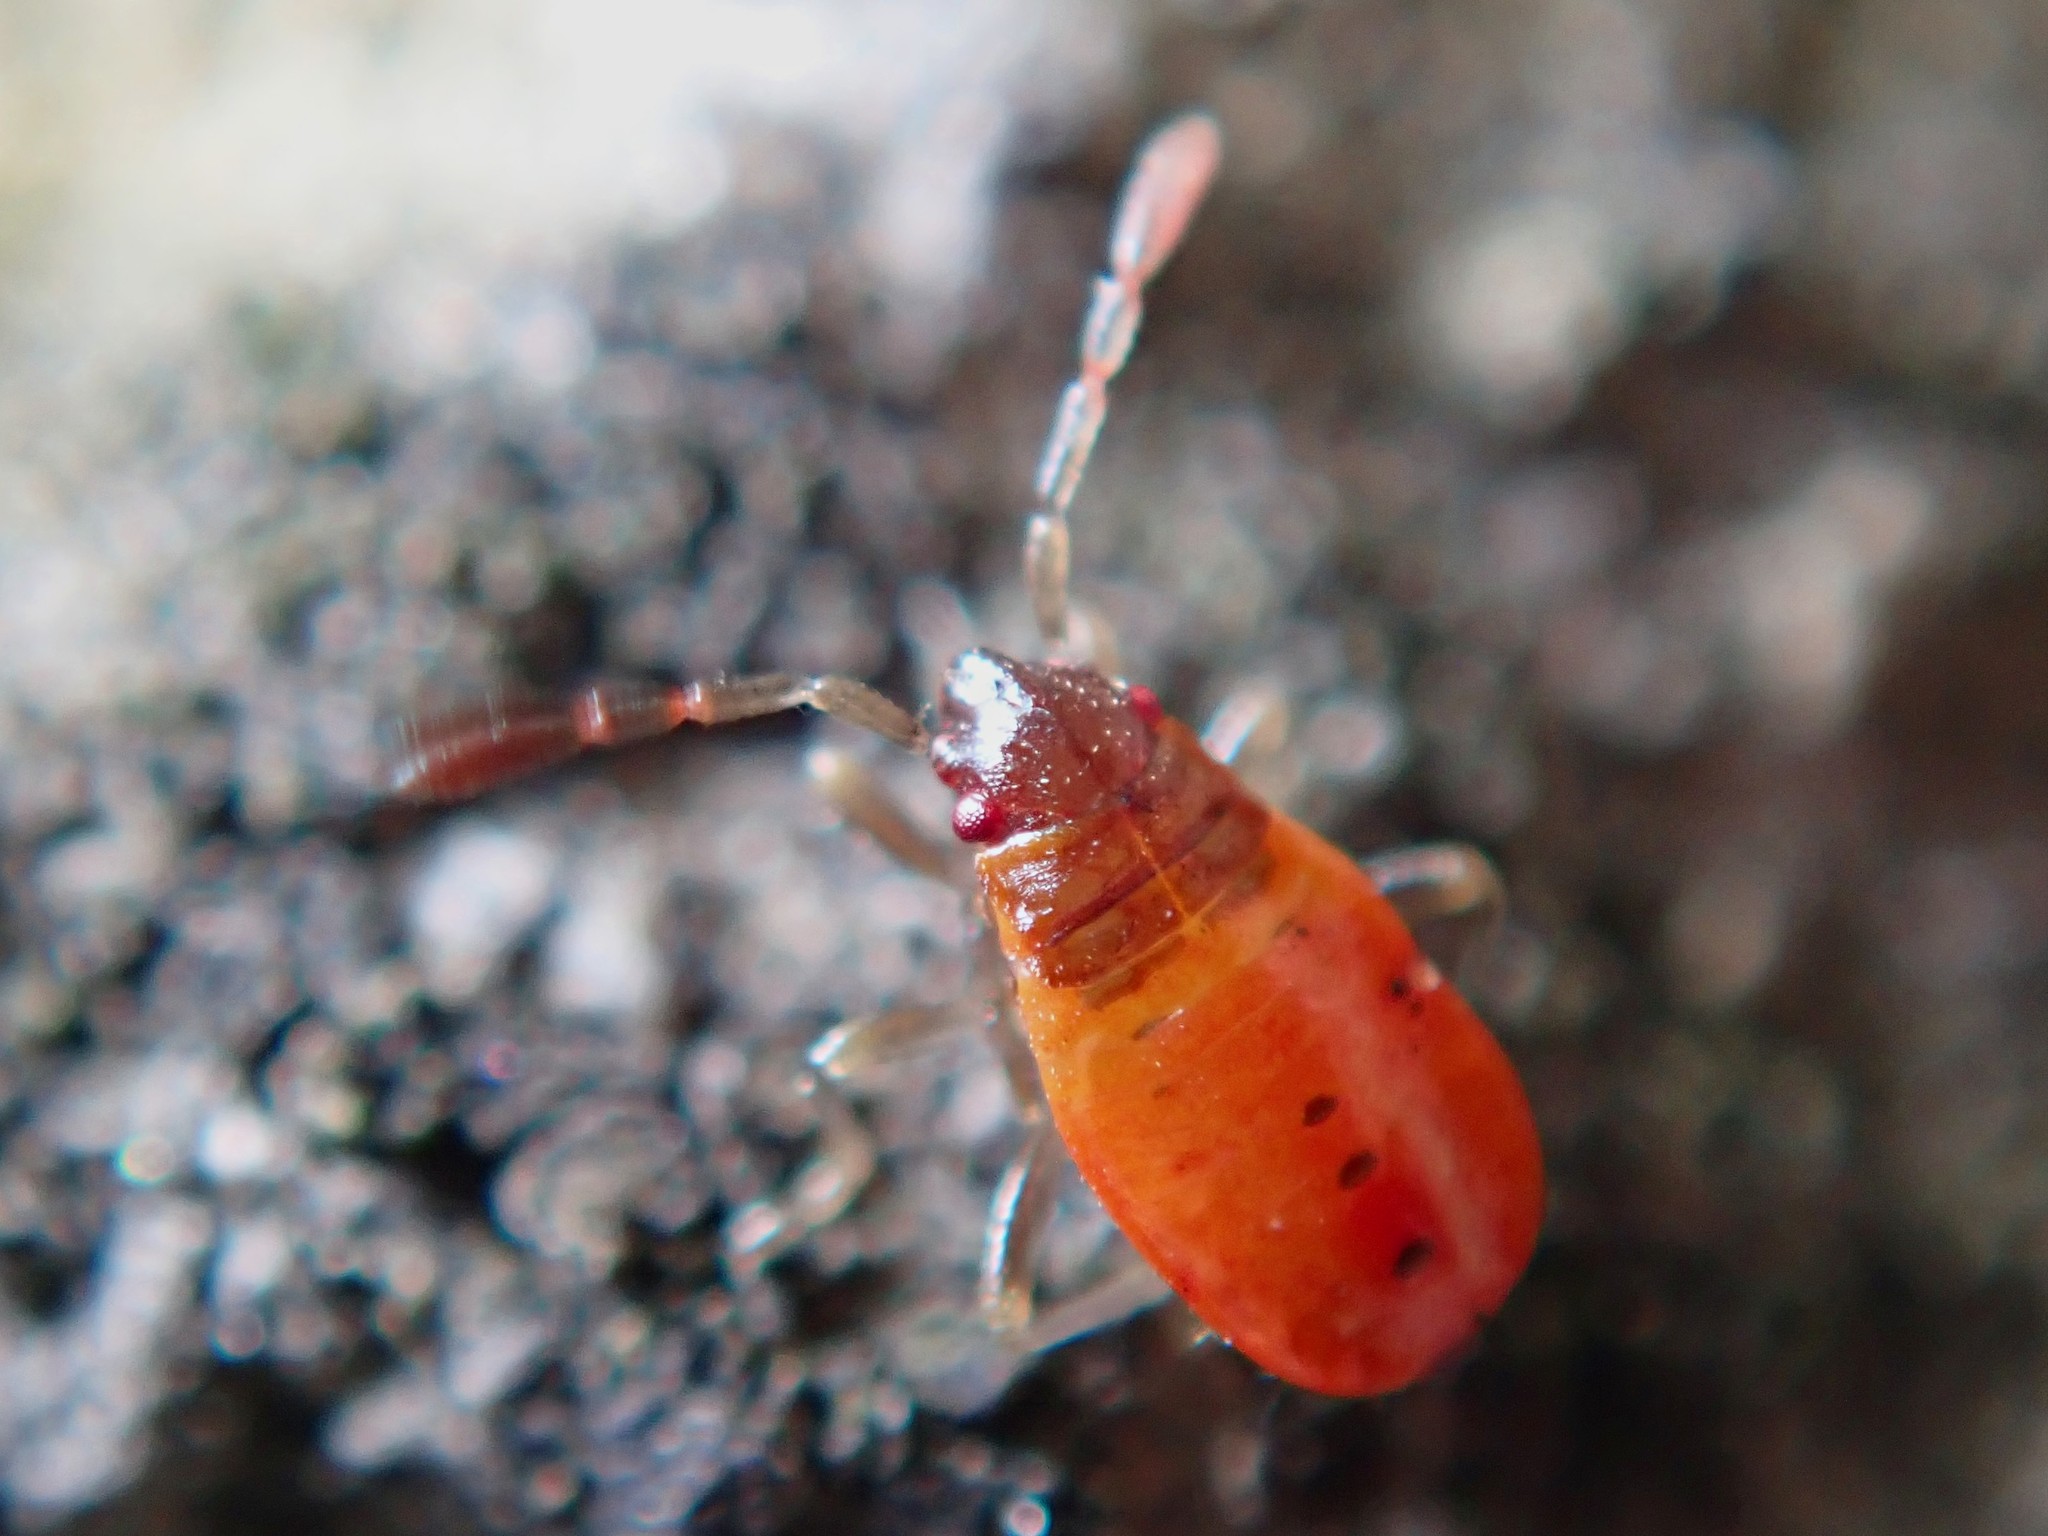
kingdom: Animalia
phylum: Arthropoda
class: Insecta
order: Hemiptera
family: Pyrrhocoridae
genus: Pyrrhocoris
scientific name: Pyrrhocoris apterus
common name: Firebug
